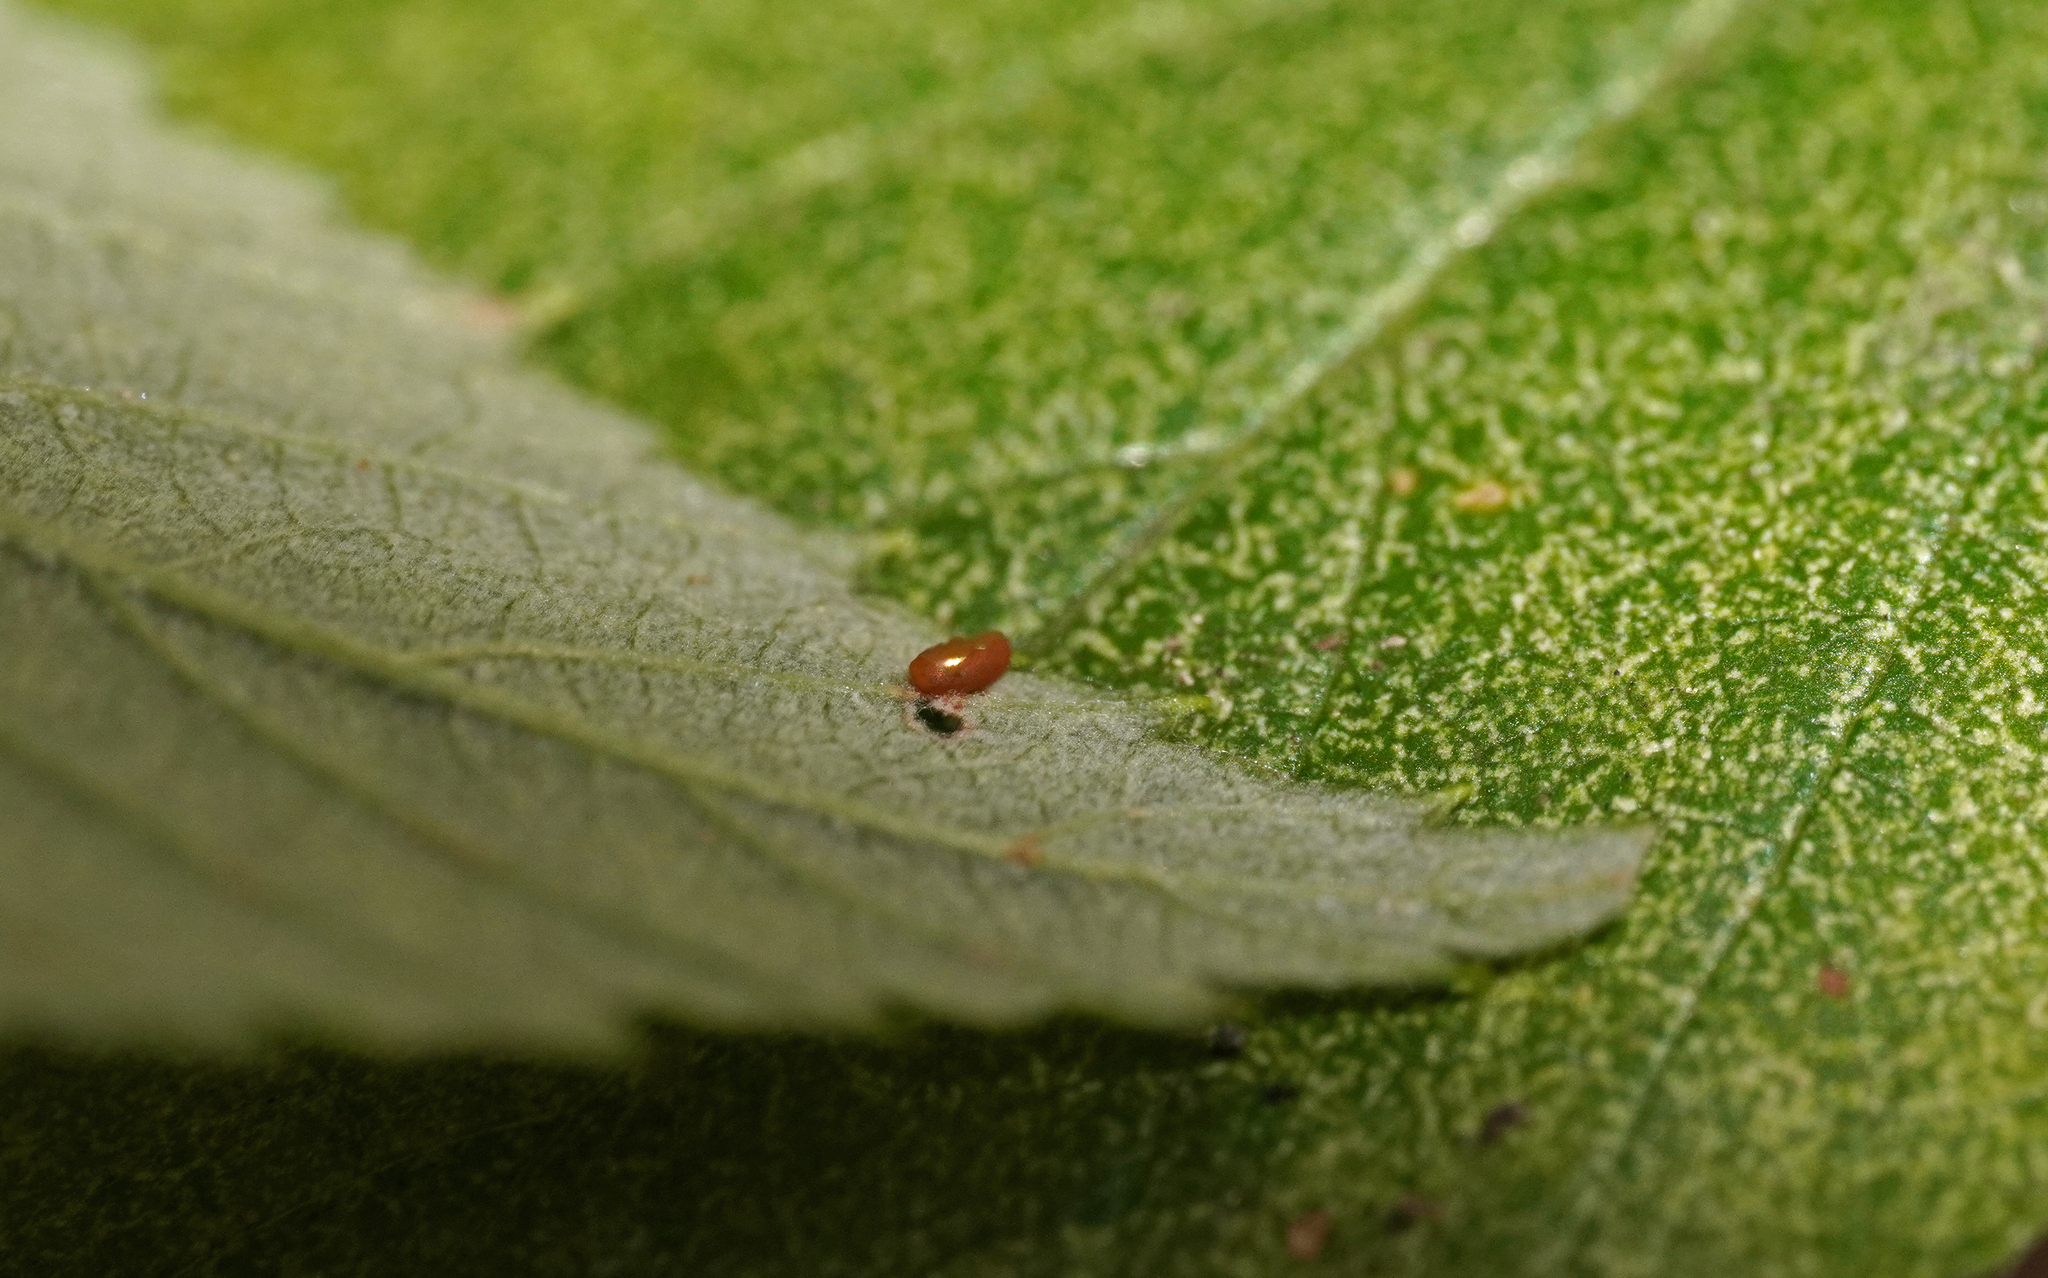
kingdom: Animalia
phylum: Arthropoda
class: Insecta
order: Lepidoptera
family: Sesiidae
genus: Pennisetia
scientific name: Pennisetia hylaeiformis
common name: Raspberry clearwing
